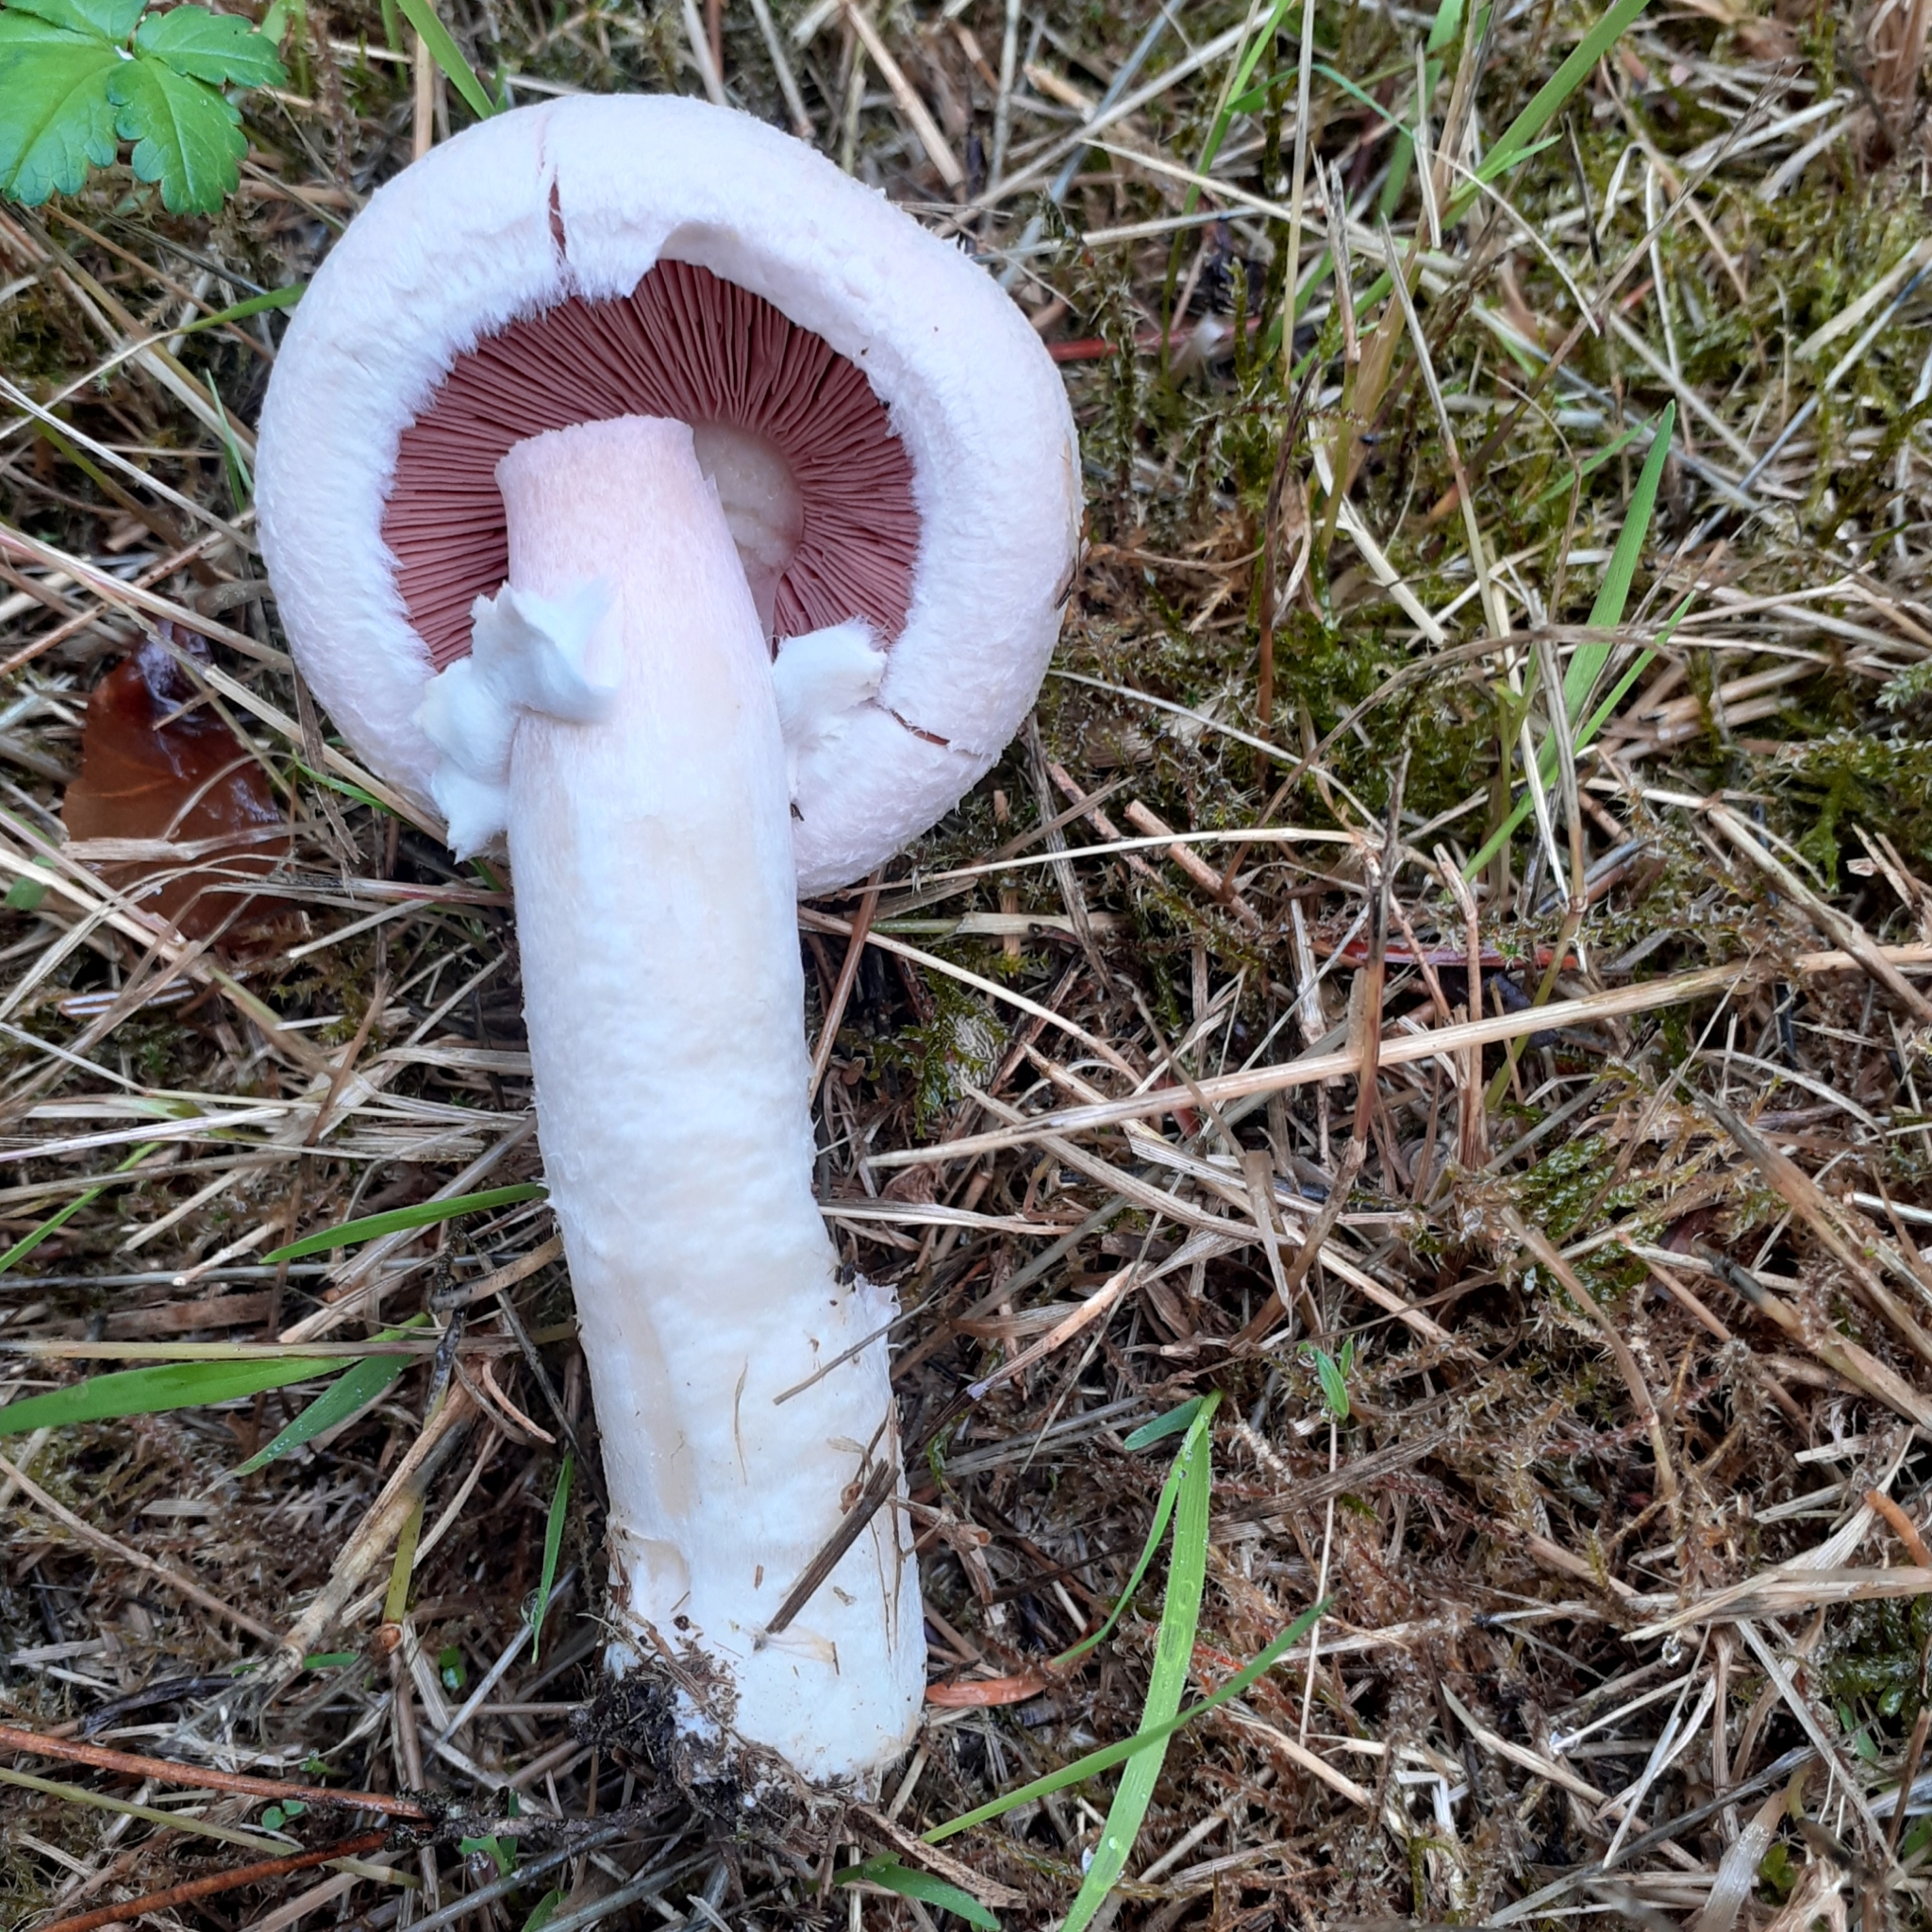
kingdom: Fungi
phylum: Basidiomycota
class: Agaricomycetes
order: Agaricales
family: Agaricaceae
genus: Agaricus
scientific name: Agaricus campestris
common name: Field mushroom
